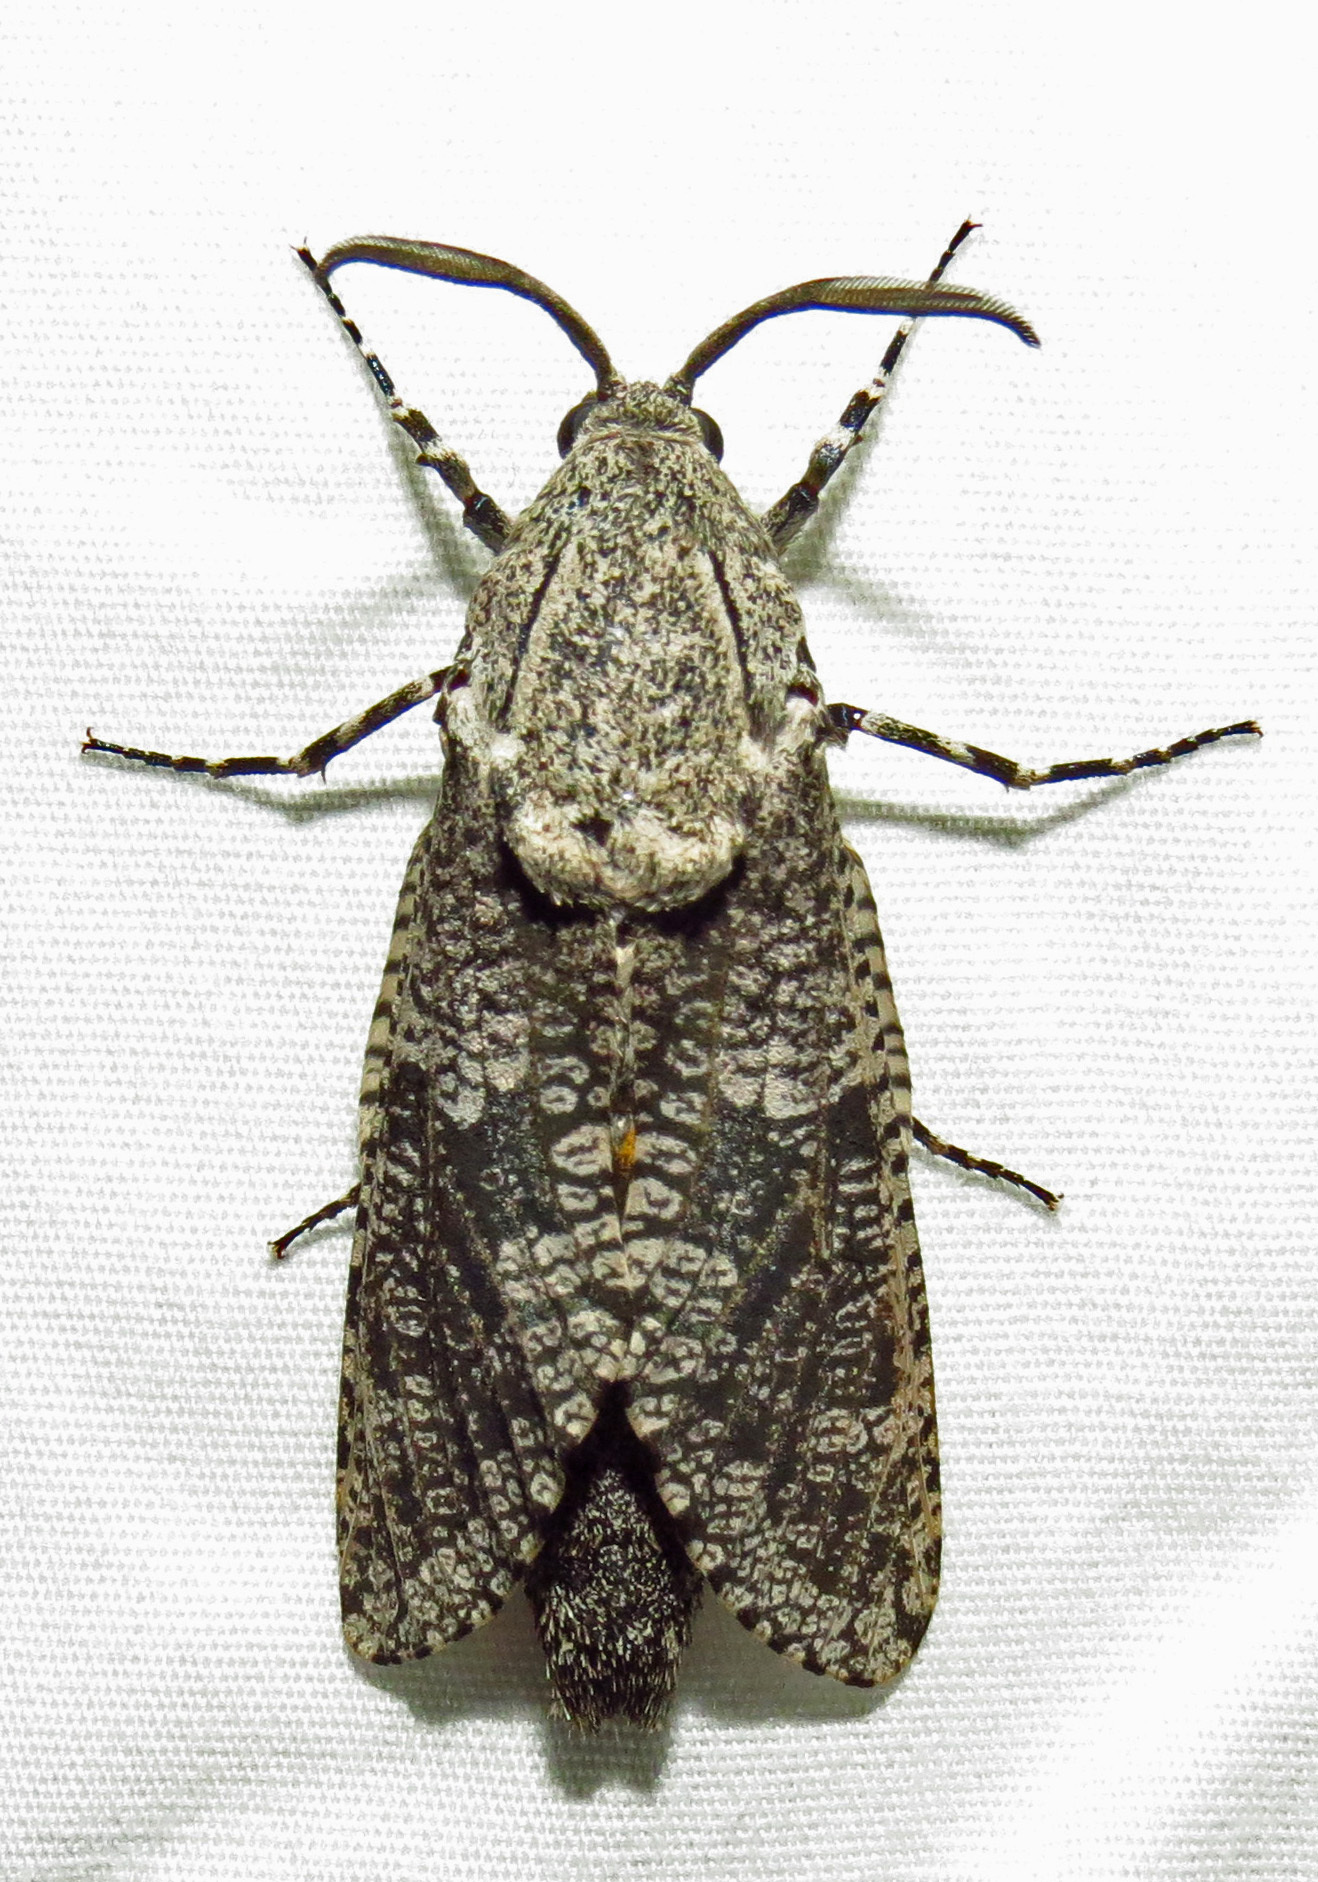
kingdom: Animalia
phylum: Arthropoda
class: Insecta
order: Lepidoptera
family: Cossidae
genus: Prionoxystus
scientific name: Prionoxystus robiniae
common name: Carpenterworm
